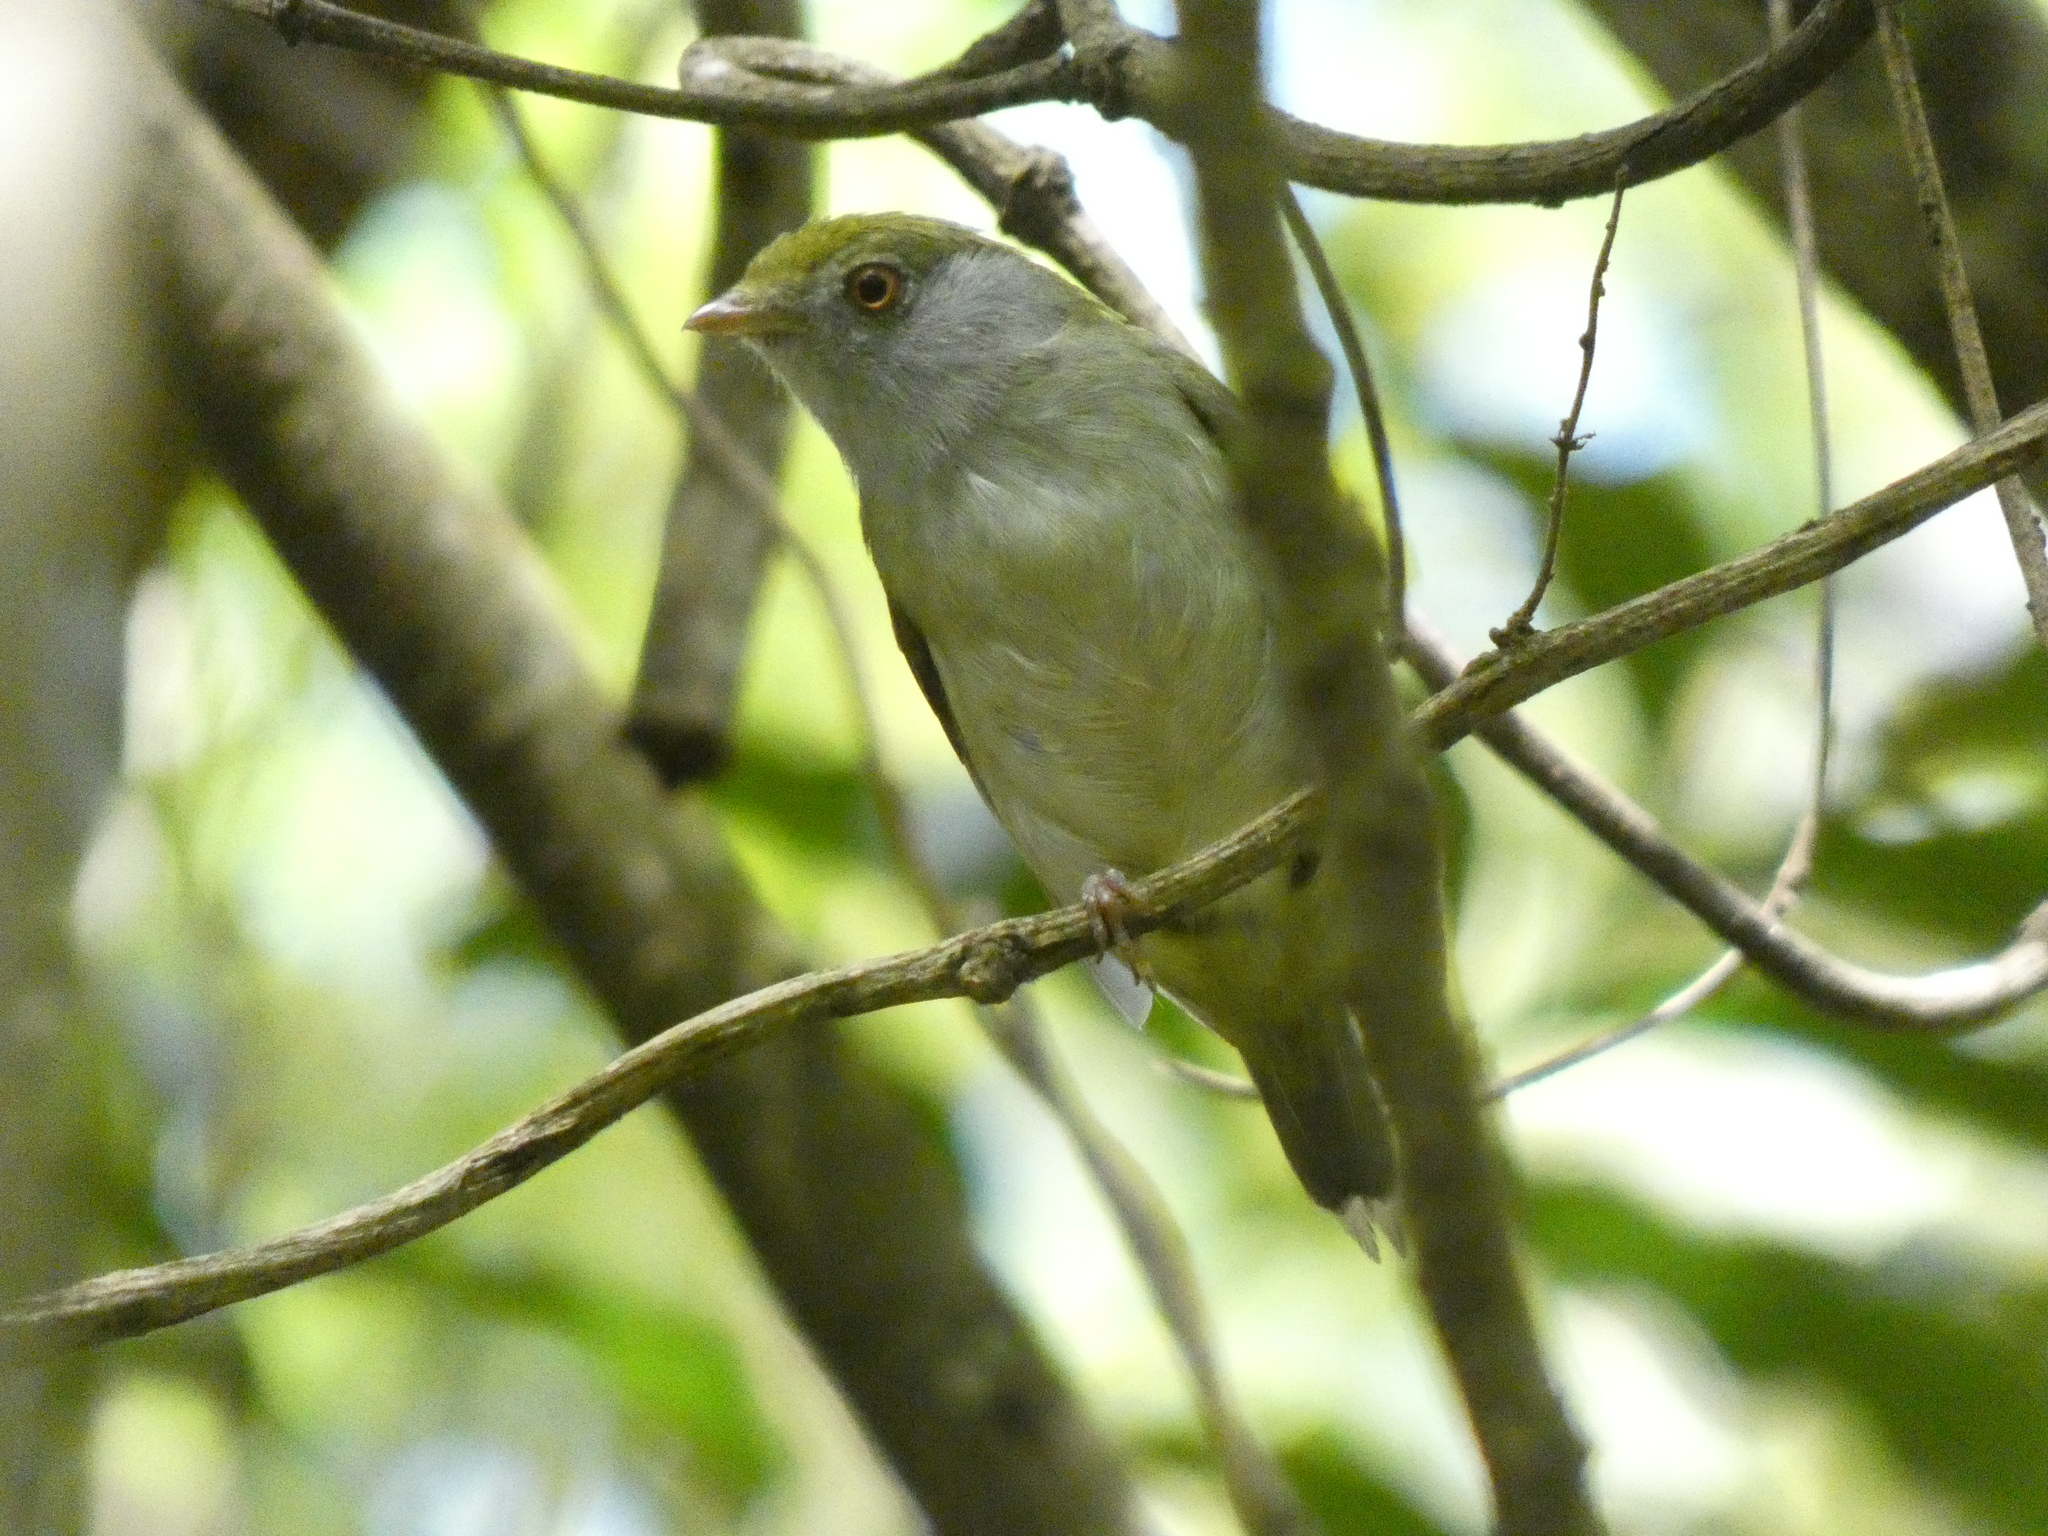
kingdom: Animalia
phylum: Chordata
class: Aves
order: Passeriformes
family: Pipridae
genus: Ilicura
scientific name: Ilicura militaris
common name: Pin-tailed manakin
